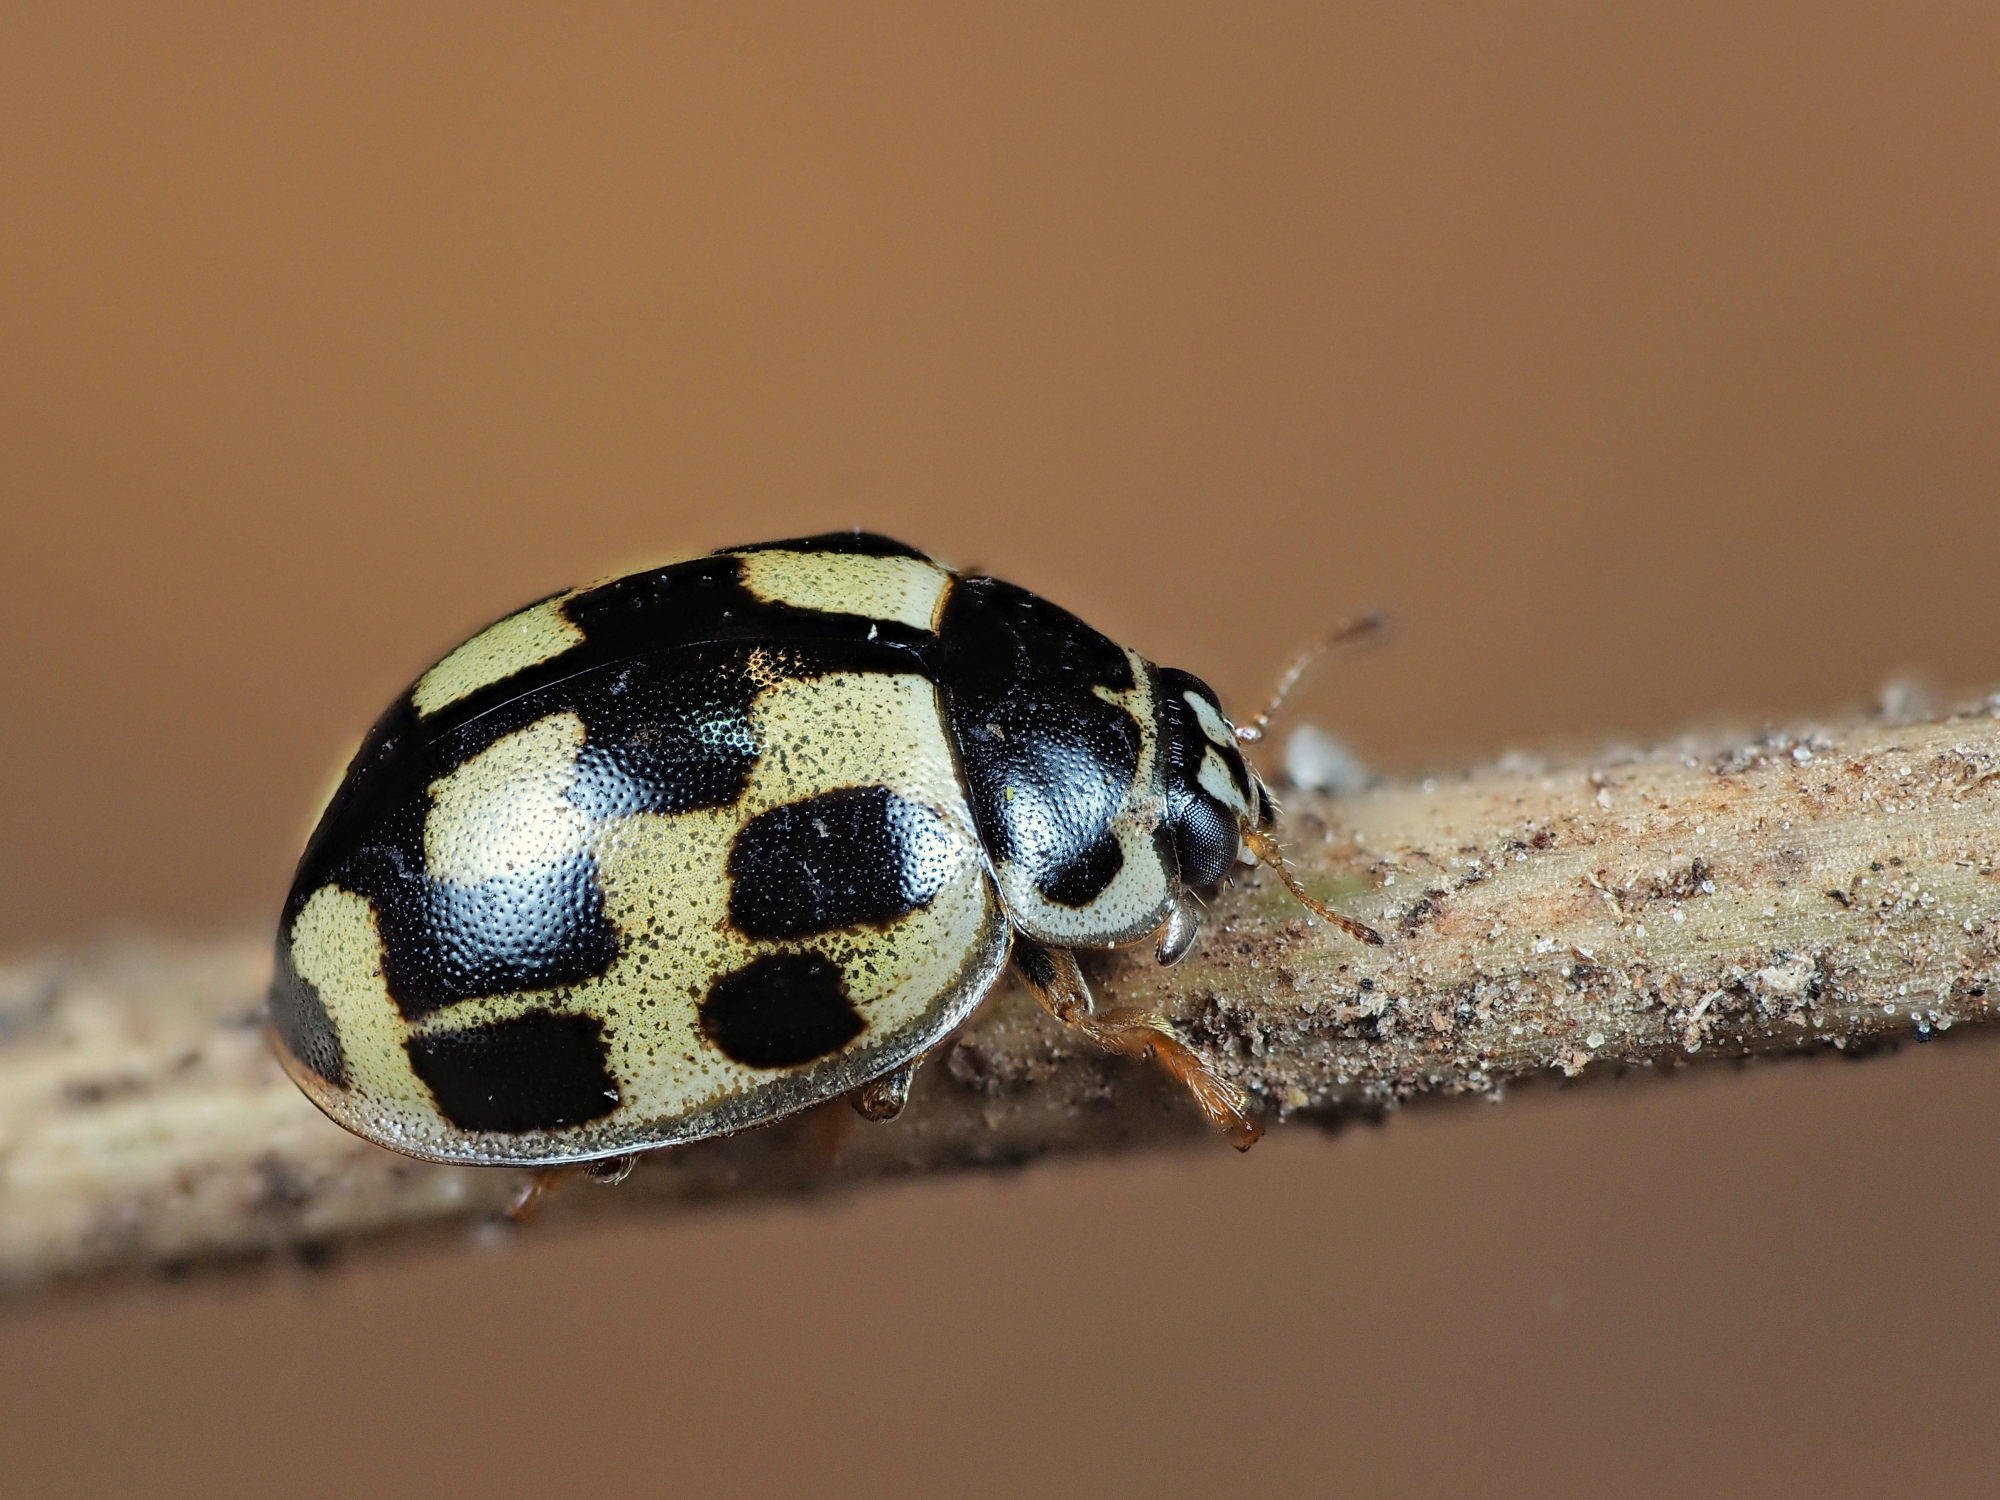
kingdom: Animalia
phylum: Arthropoda
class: Insecta
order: Coleoptera
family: Coccinellidae
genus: Propylaea
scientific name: Propylaea quatuordecimpunctata
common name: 14-spotted ladybird beetle
